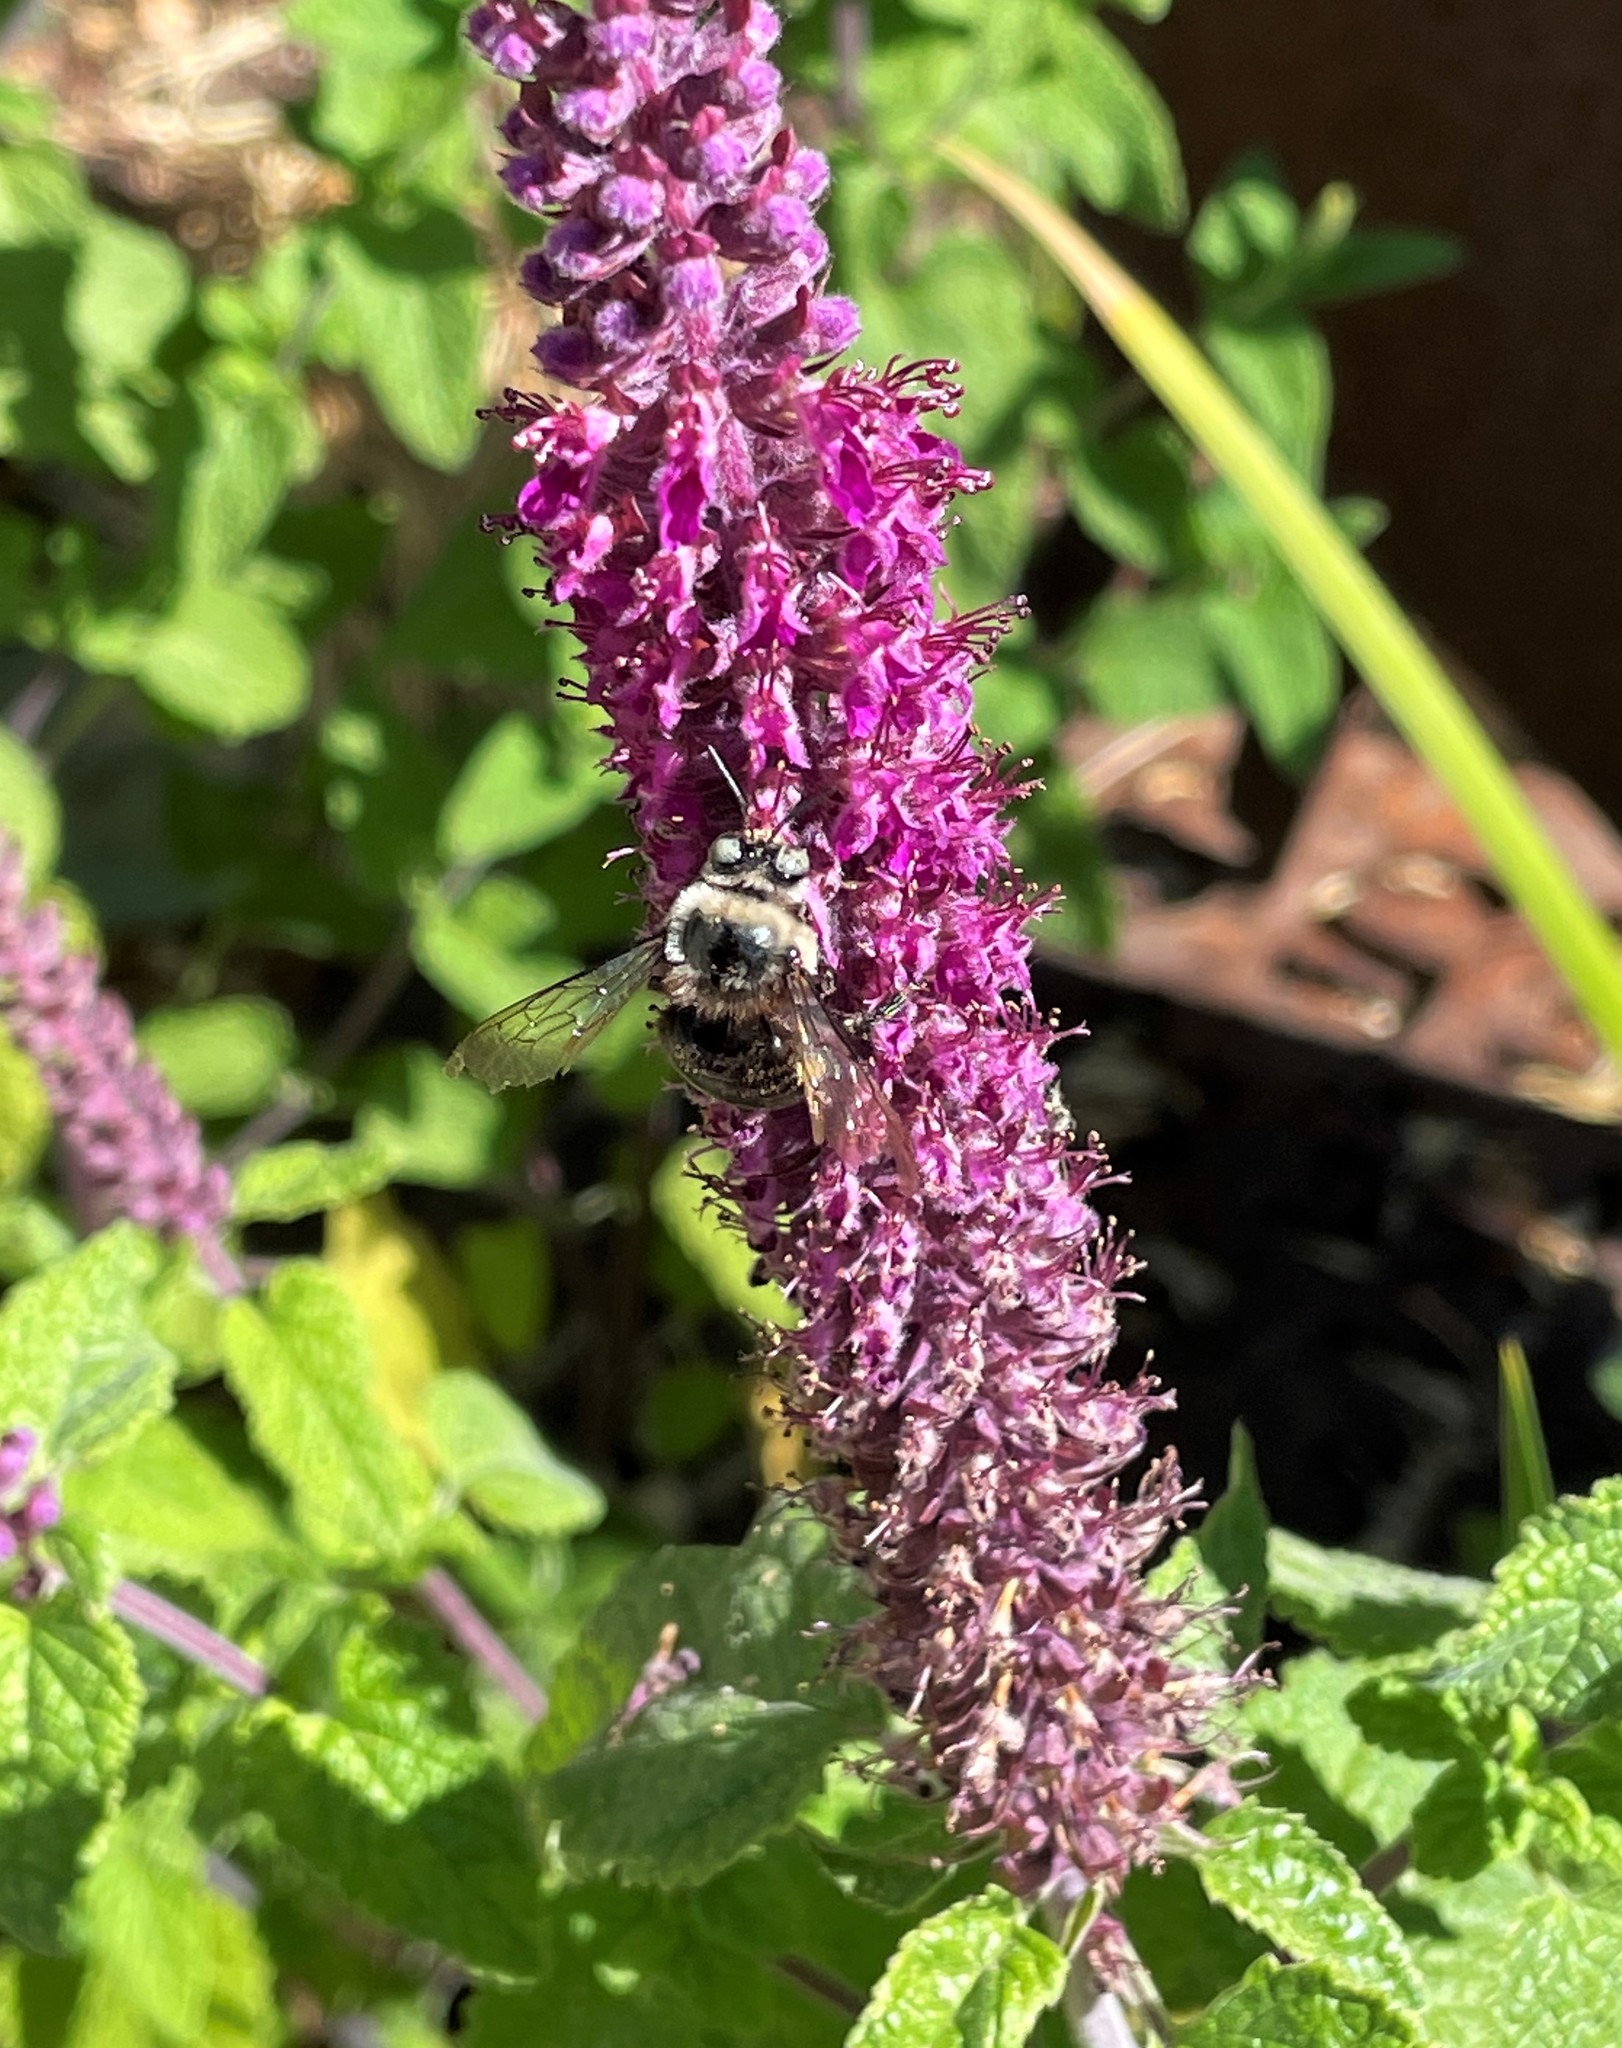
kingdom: Animalia
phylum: Arthropoda
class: Insecta
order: Hymenoptera
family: Apidae
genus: Xylocopa
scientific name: Xylocopa tabaniformis
